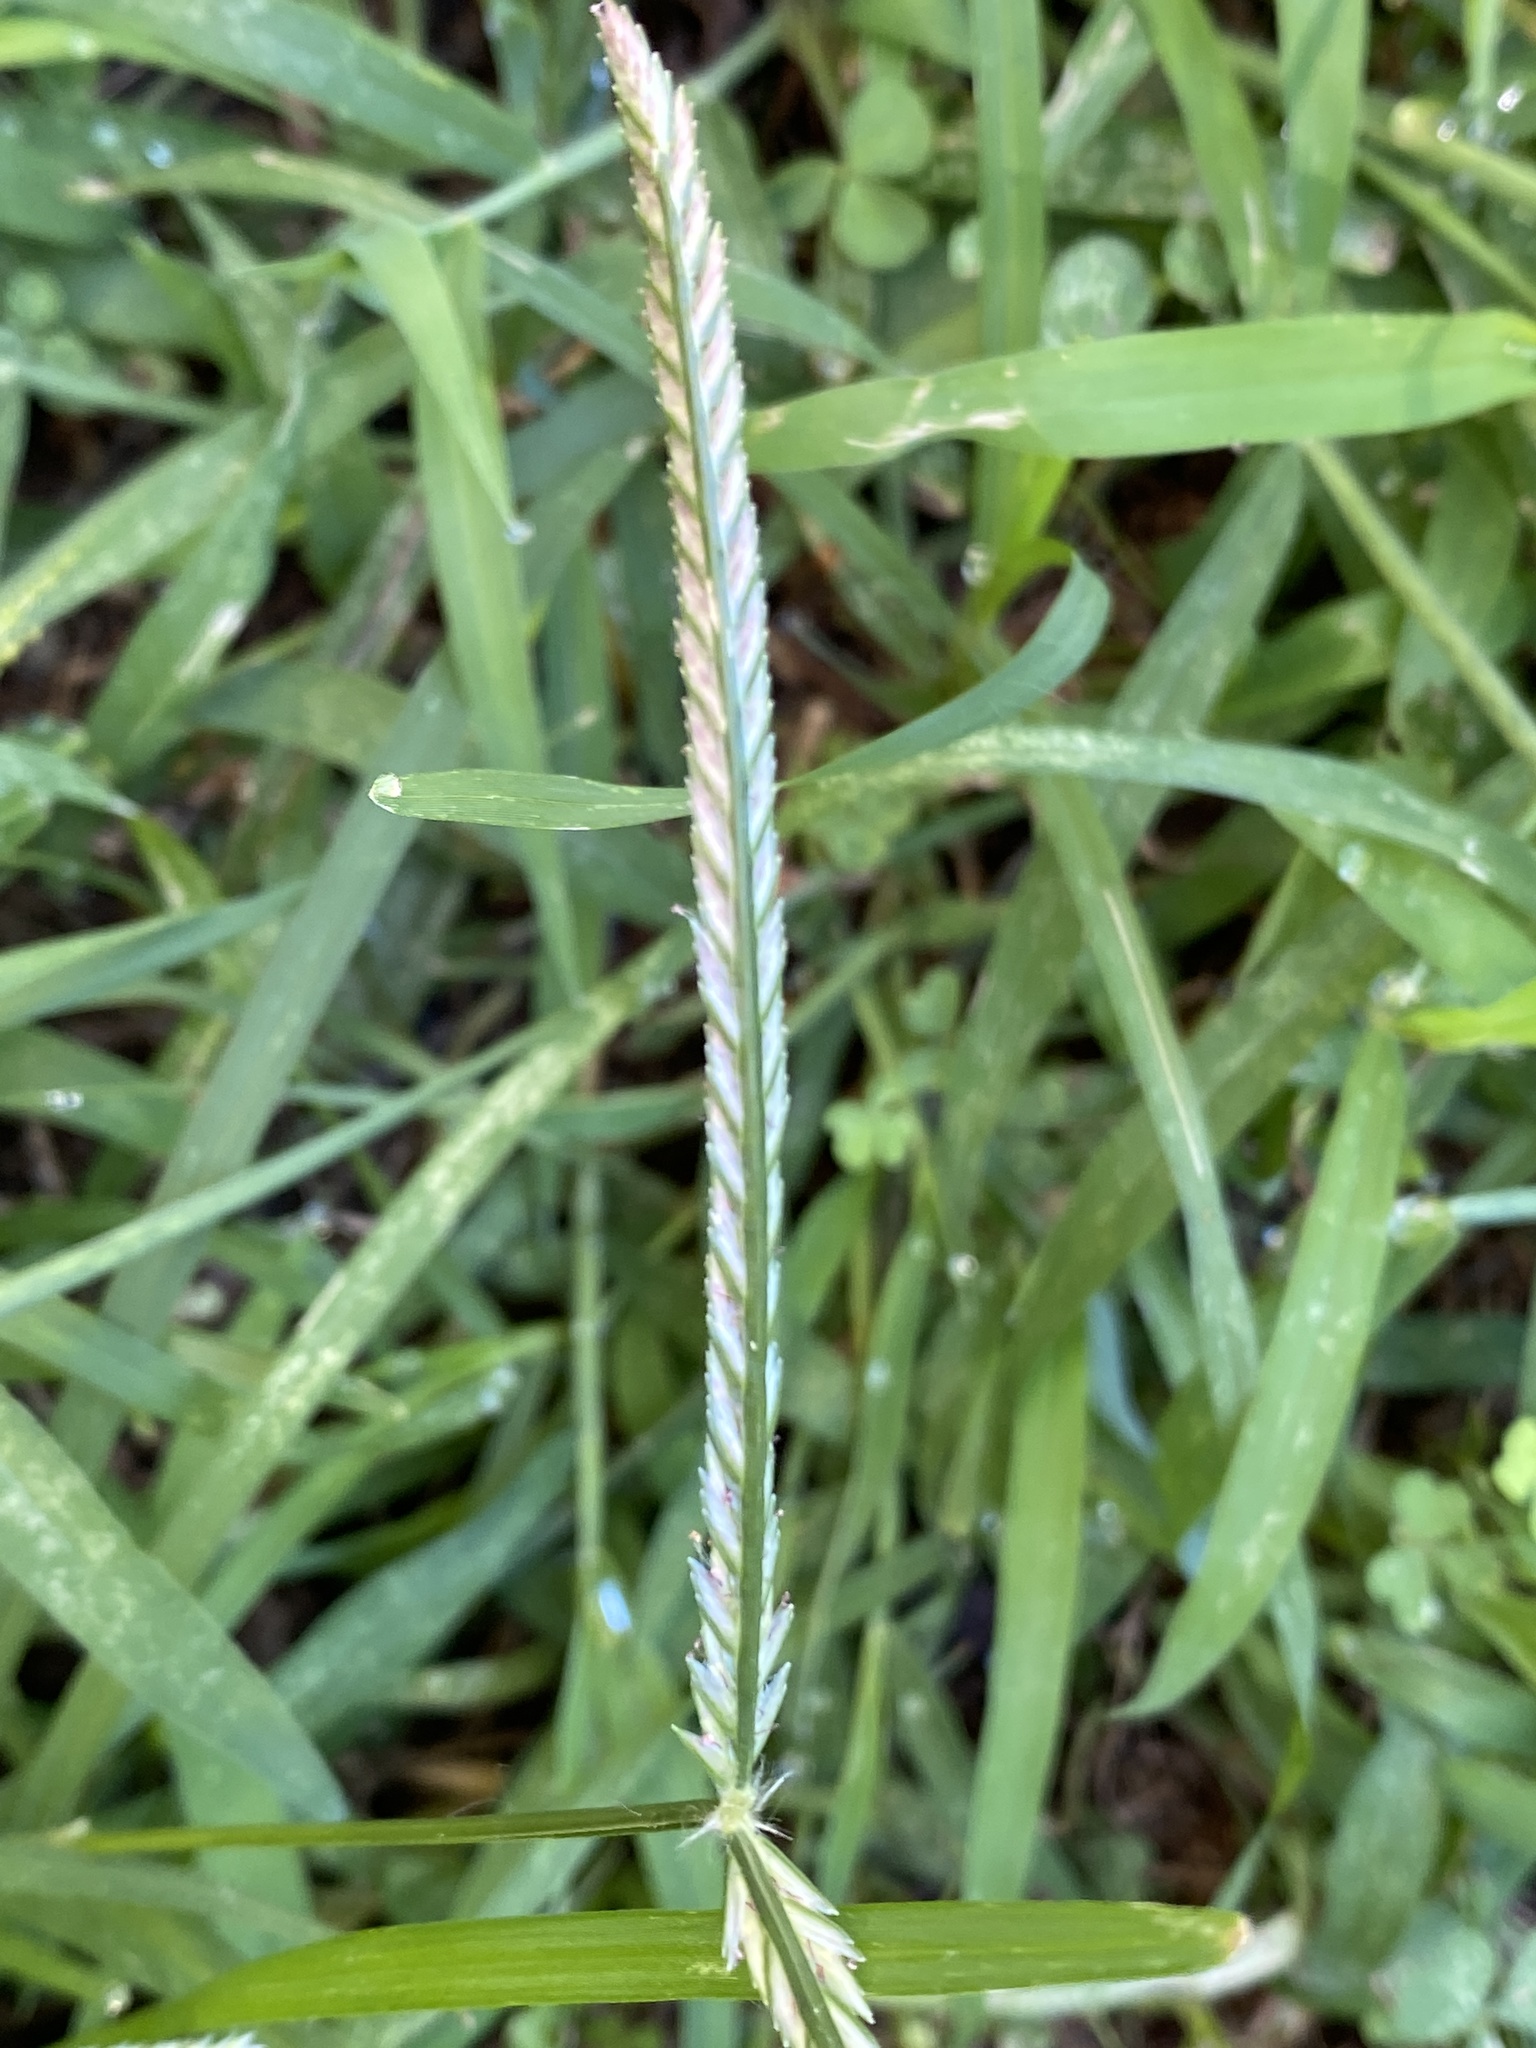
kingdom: Plantae
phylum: Tracheophyta
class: Liliopsida
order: Poales
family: Poaceae
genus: Eleusine
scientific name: Eleusine indica
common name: Yard-grass
